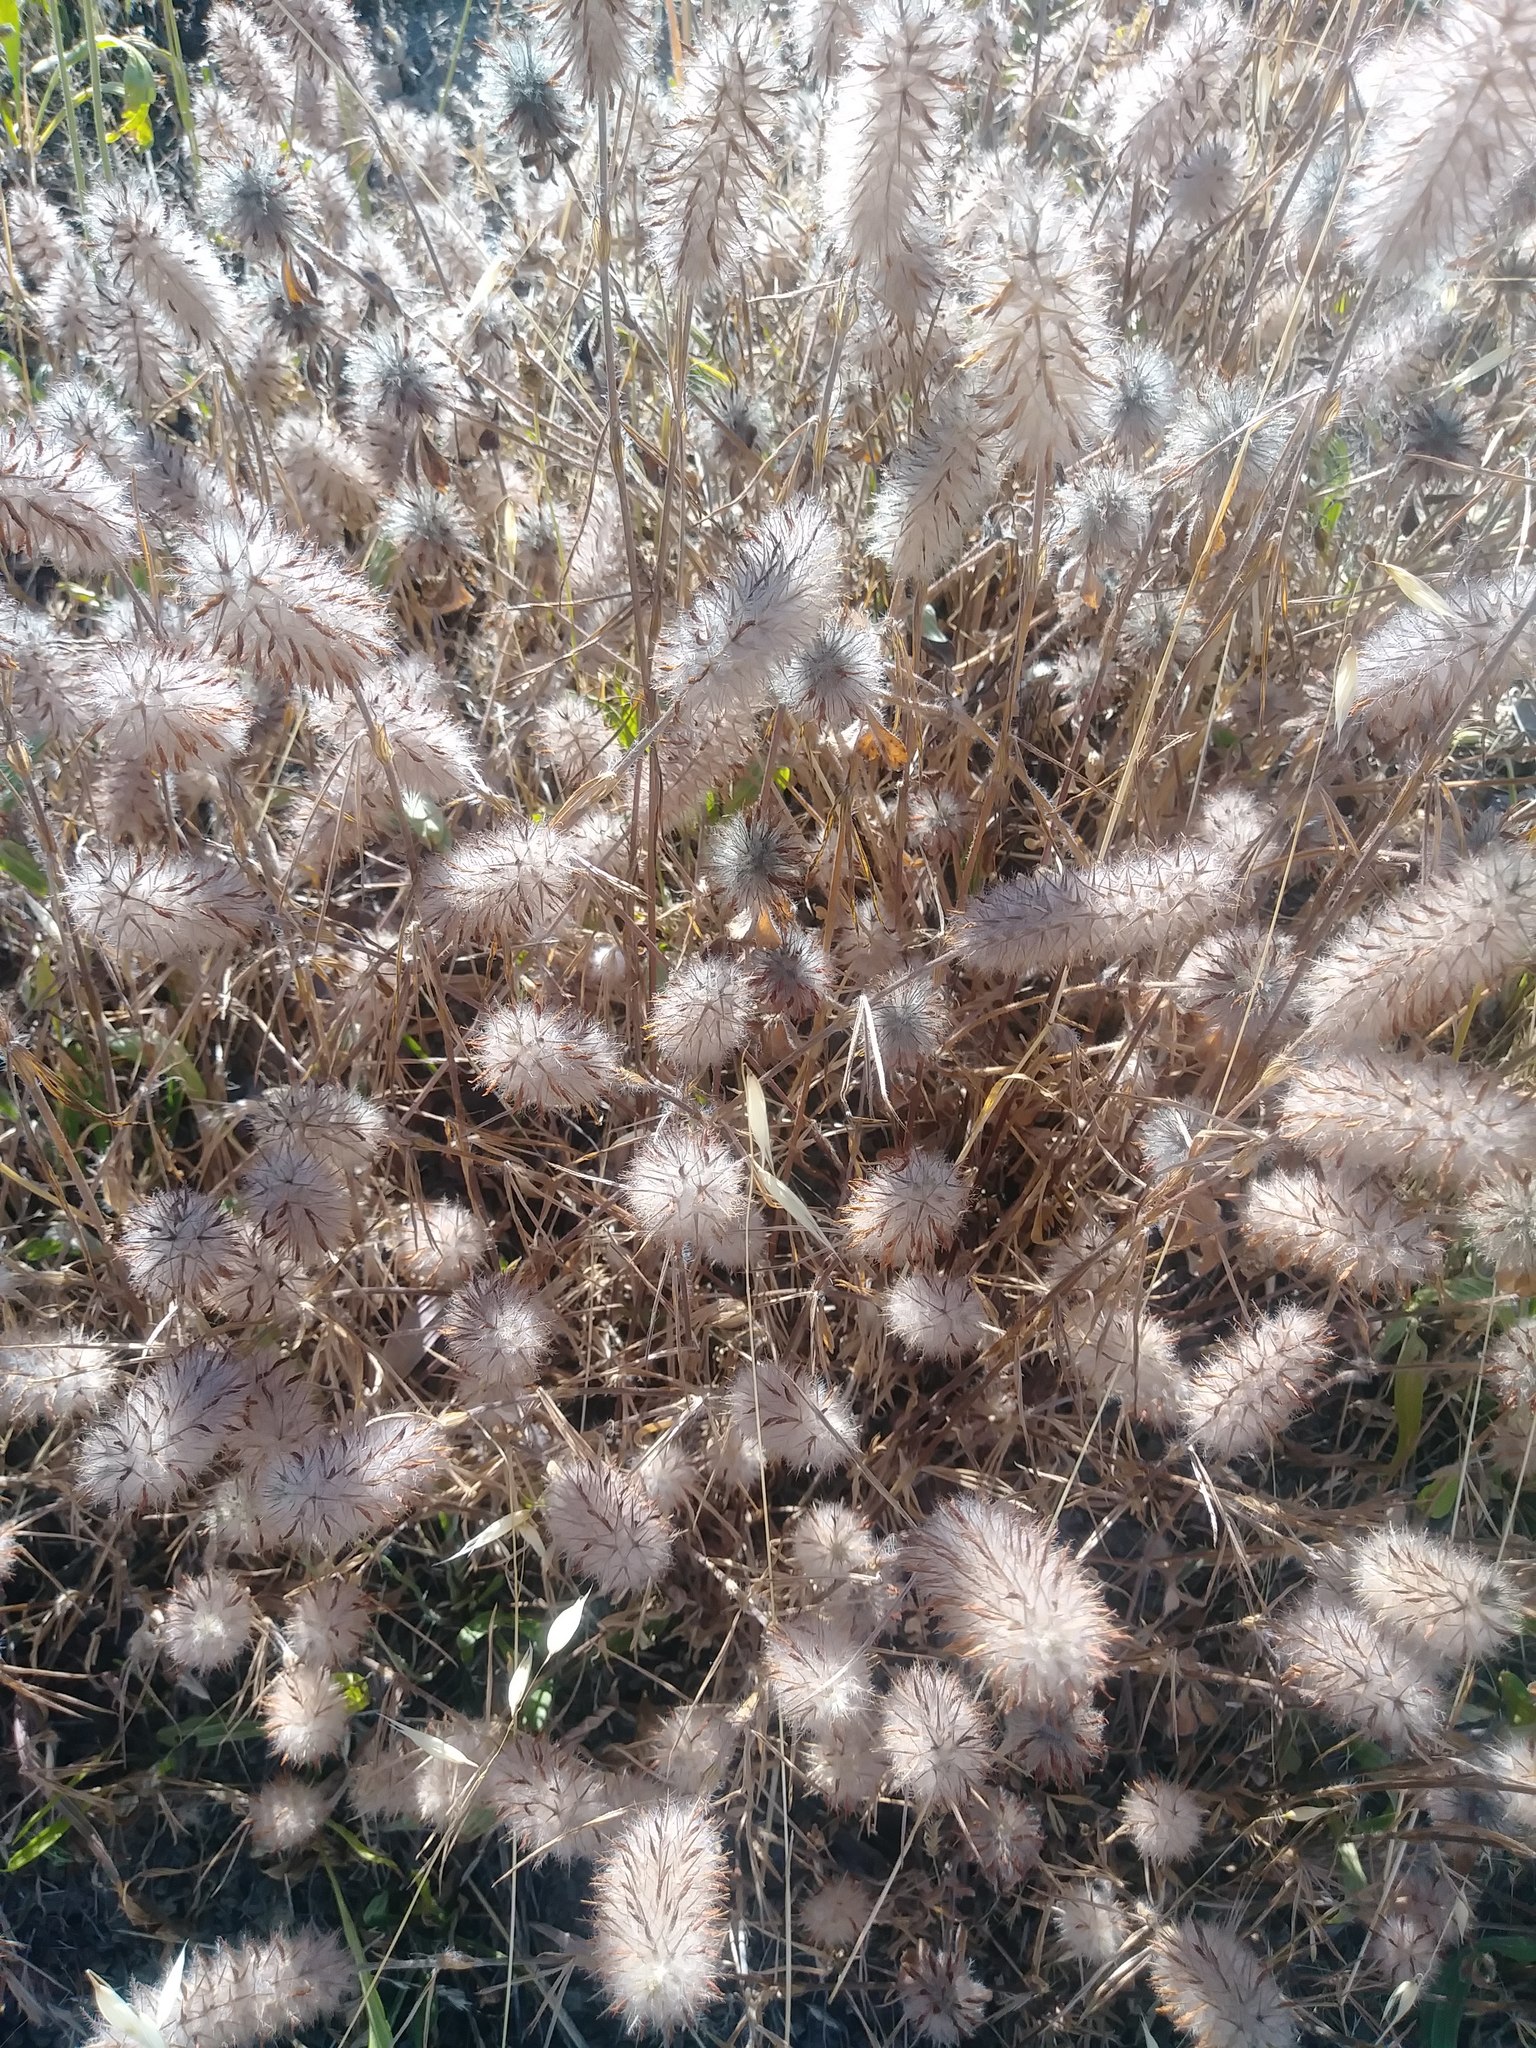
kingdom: Plantae
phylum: Tracheophyta
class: Magnoliopsida
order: Fabales
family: Fabaceae
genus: Trifolium
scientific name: Trifolium angustifolium
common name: Narrow clover
